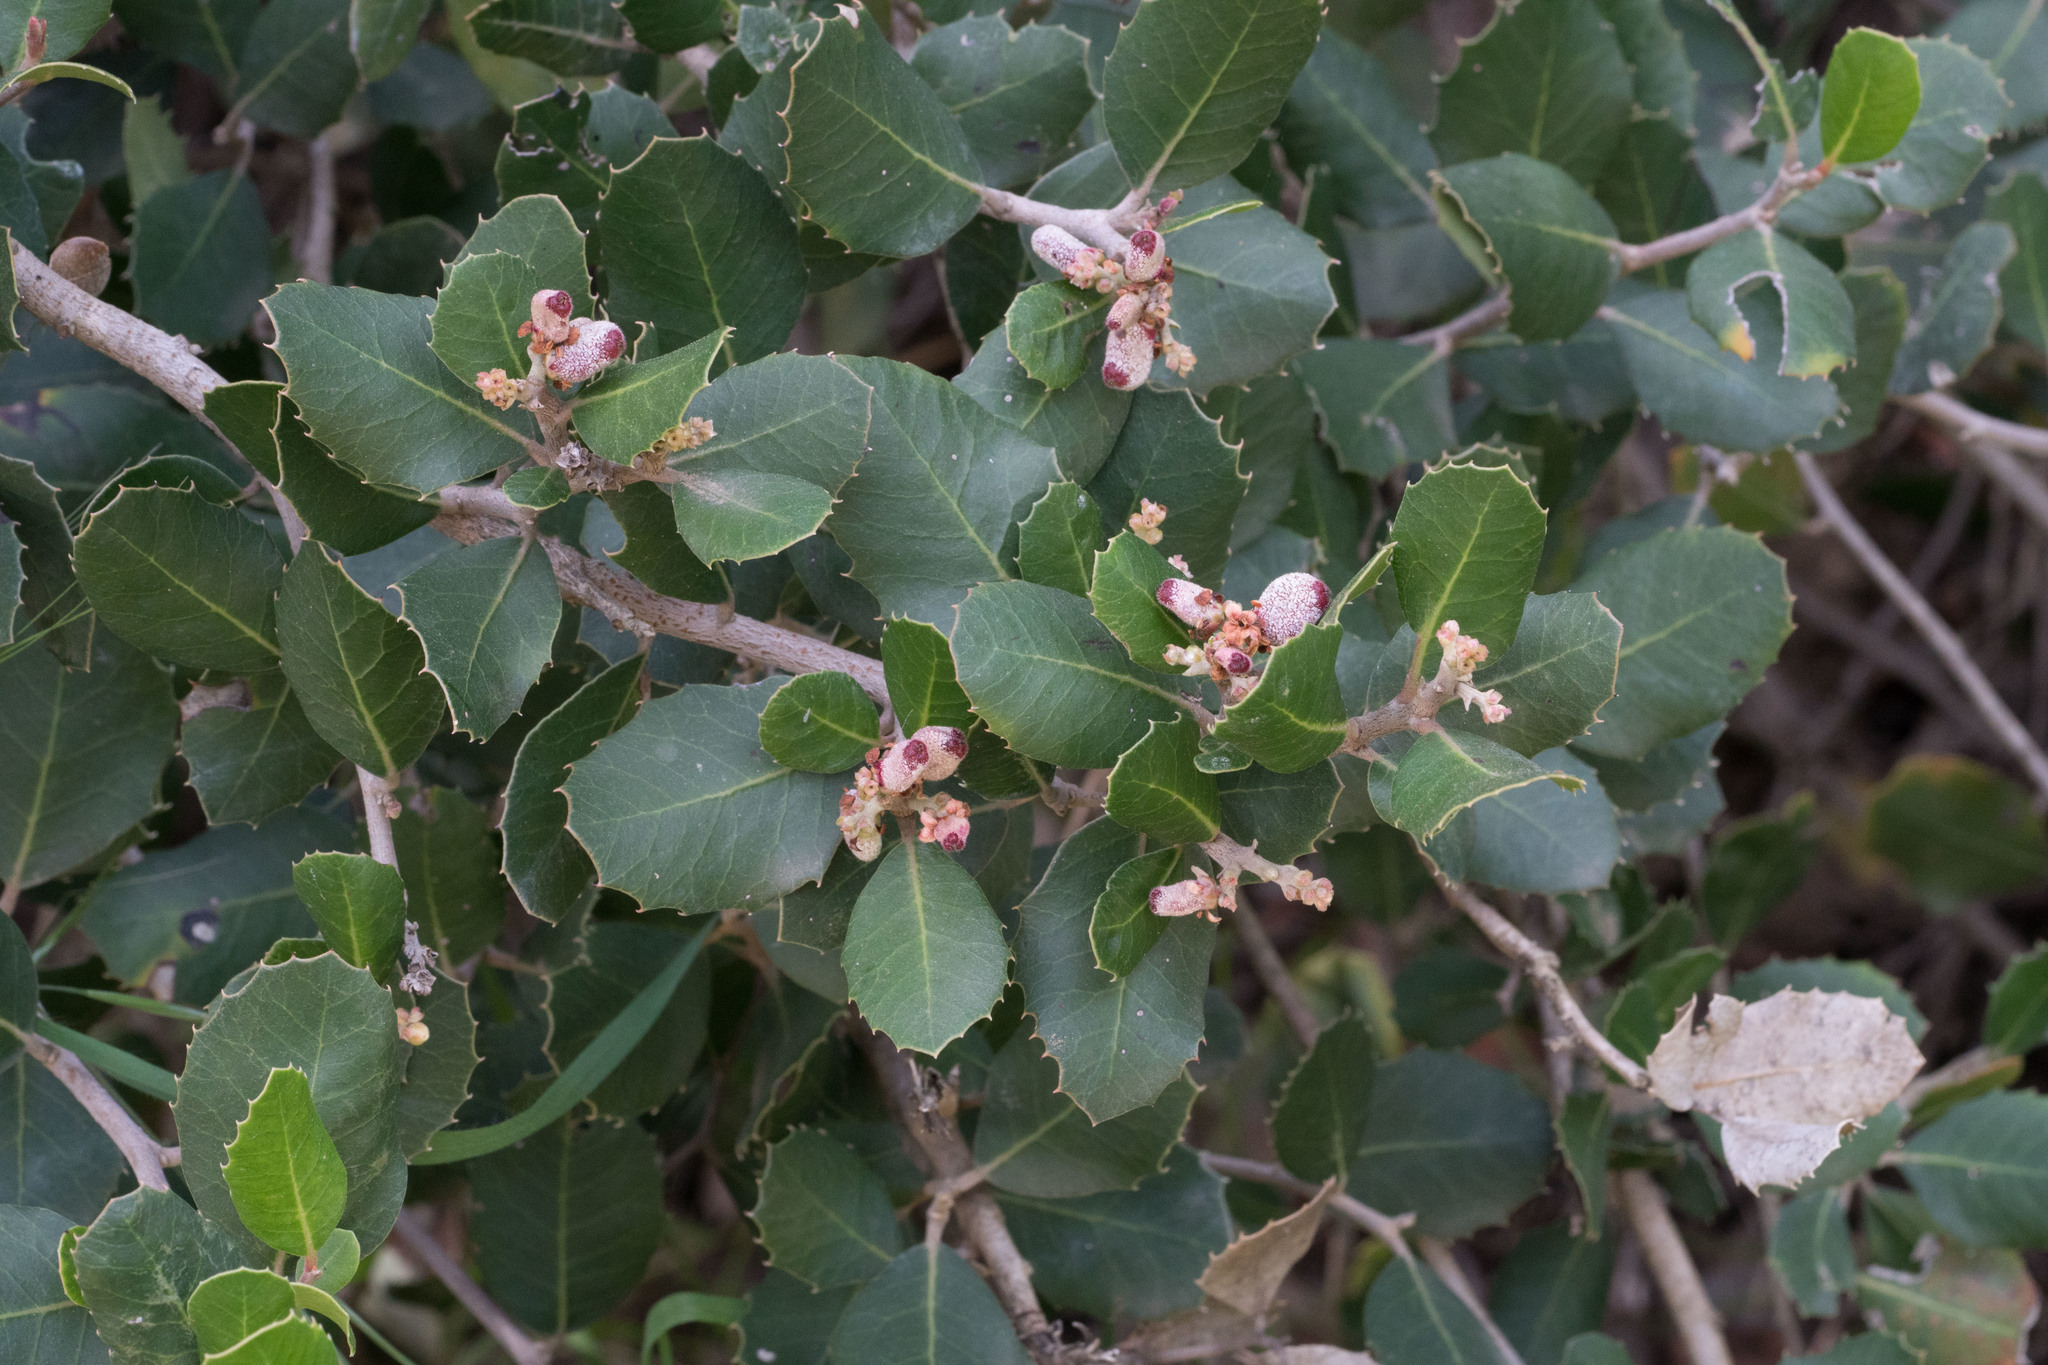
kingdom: Plantae
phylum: Tracheophyta
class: Magnoliopsida
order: Sapindales
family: Anacardiaceae
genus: Rhus
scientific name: Rhus integrifolia
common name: Lemonade sumac
